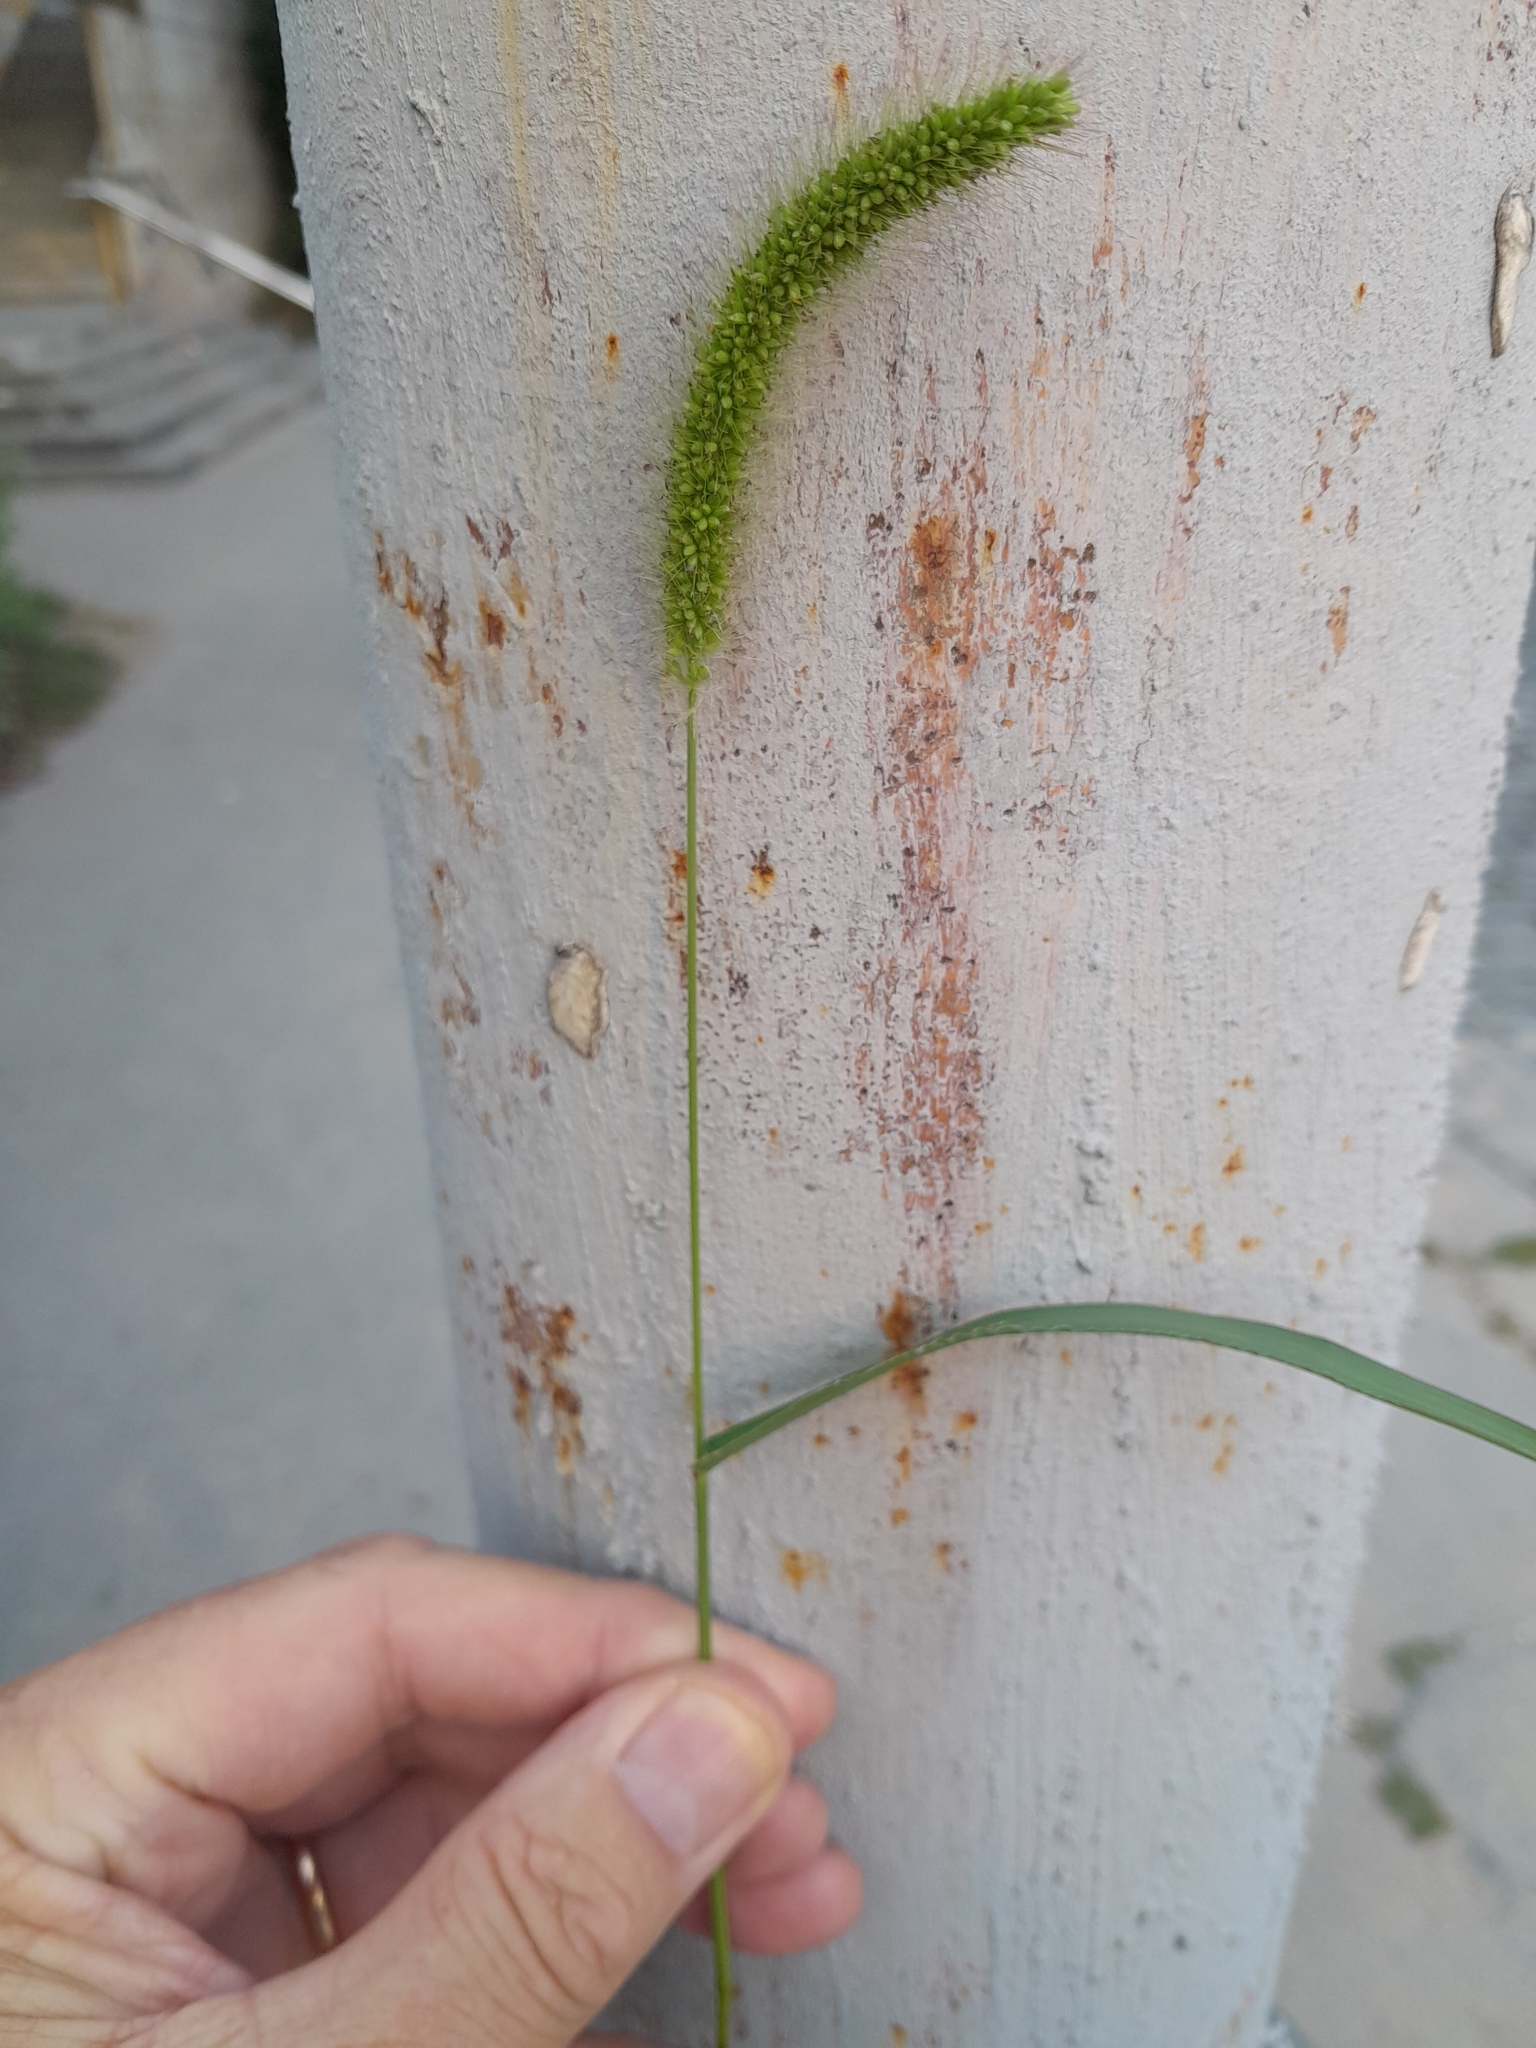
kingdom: Plantae
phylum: Tracheophyta
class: Liliopsida
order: Poales
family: Poaceae
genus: Setaria
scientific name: Setaria viridis
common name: Green bristlegrass
